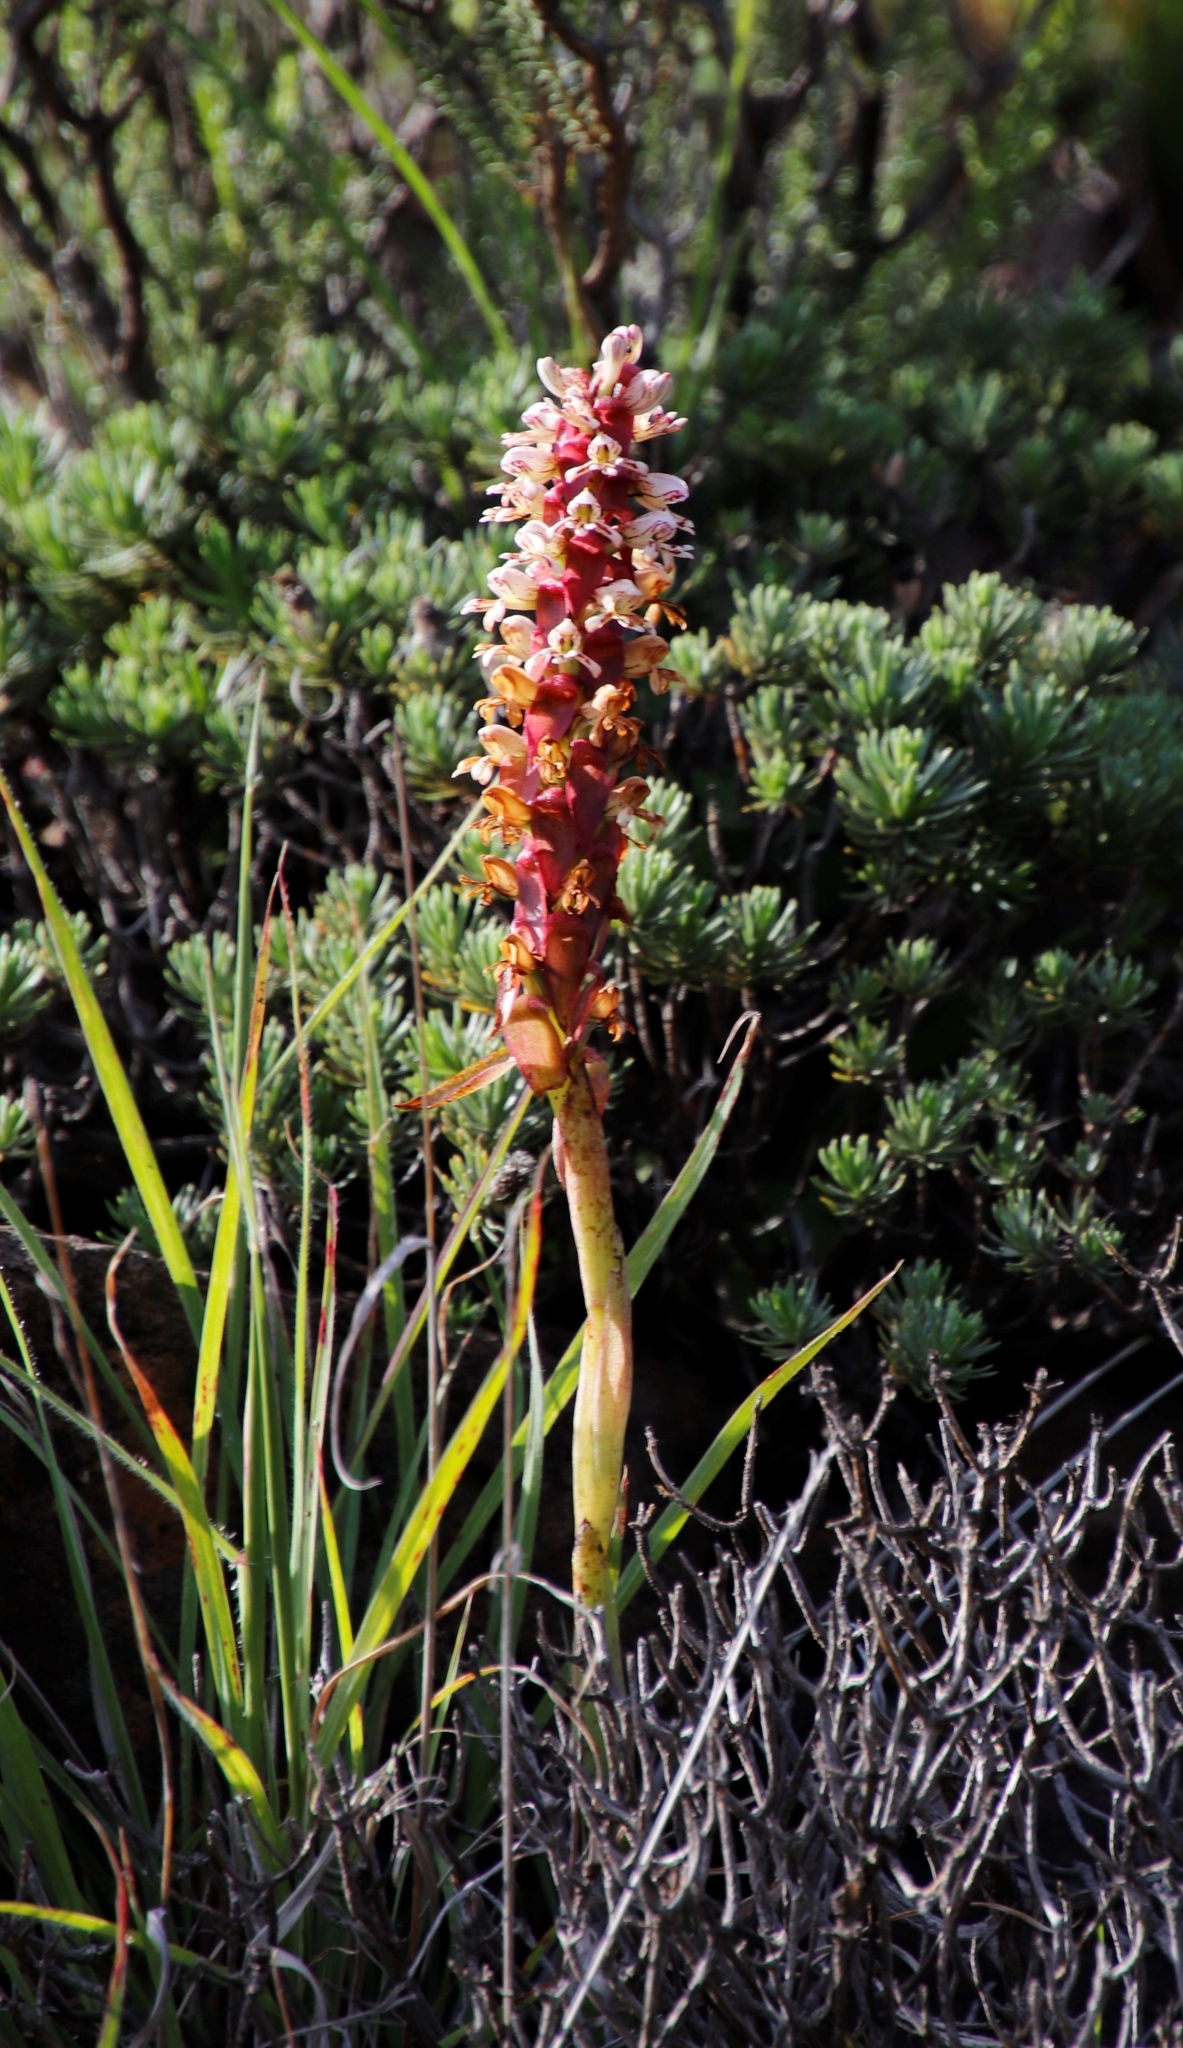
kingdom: Plantae
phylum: Tracheophyta
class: Liliopsida
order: Asparagales
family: Orchidaceae
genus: Satyrium
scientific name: Satyrium cristatum
